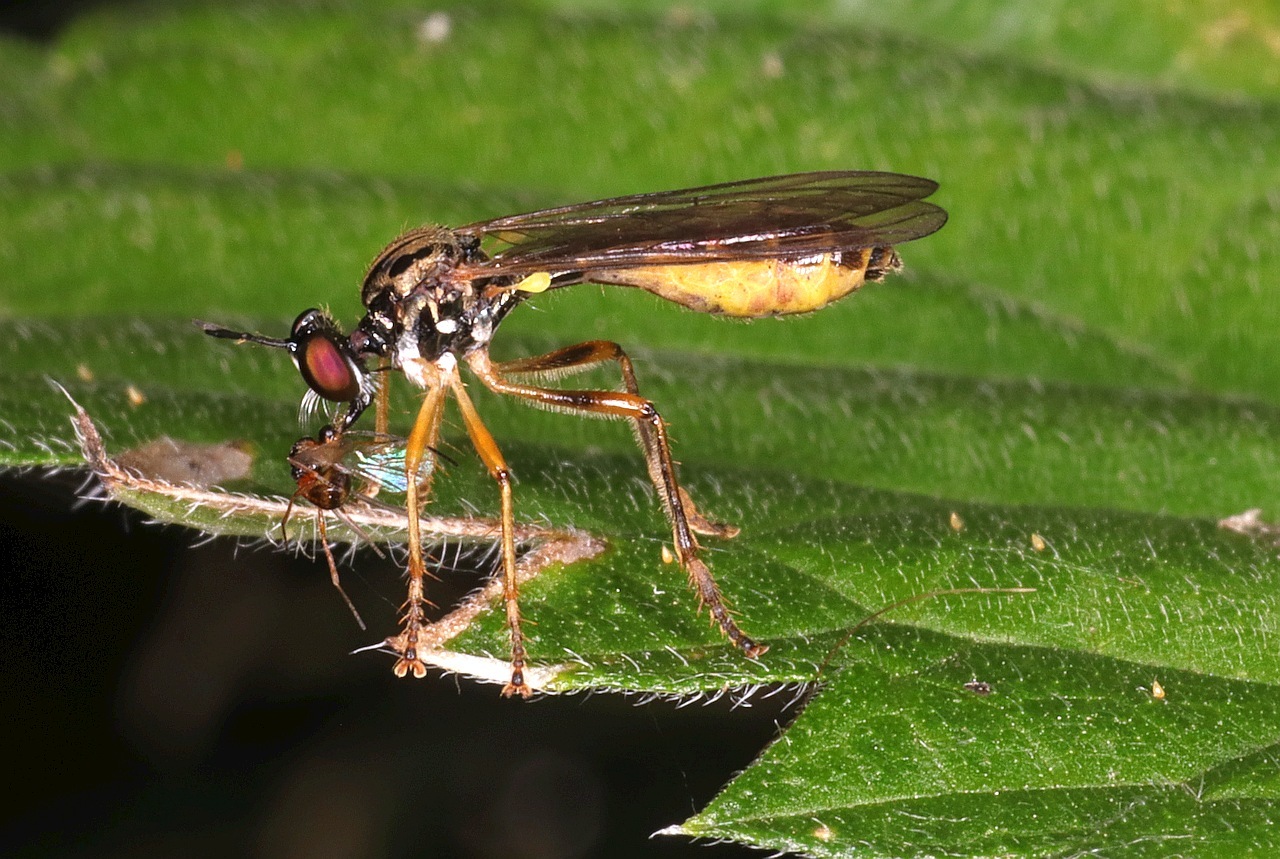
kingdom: Animalia
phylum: Arthropoda
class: Insecta
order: Diptera
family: Asilidae
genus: Dioctria
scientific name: Dioctria linearis
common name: Small yellow-legged robberfly
